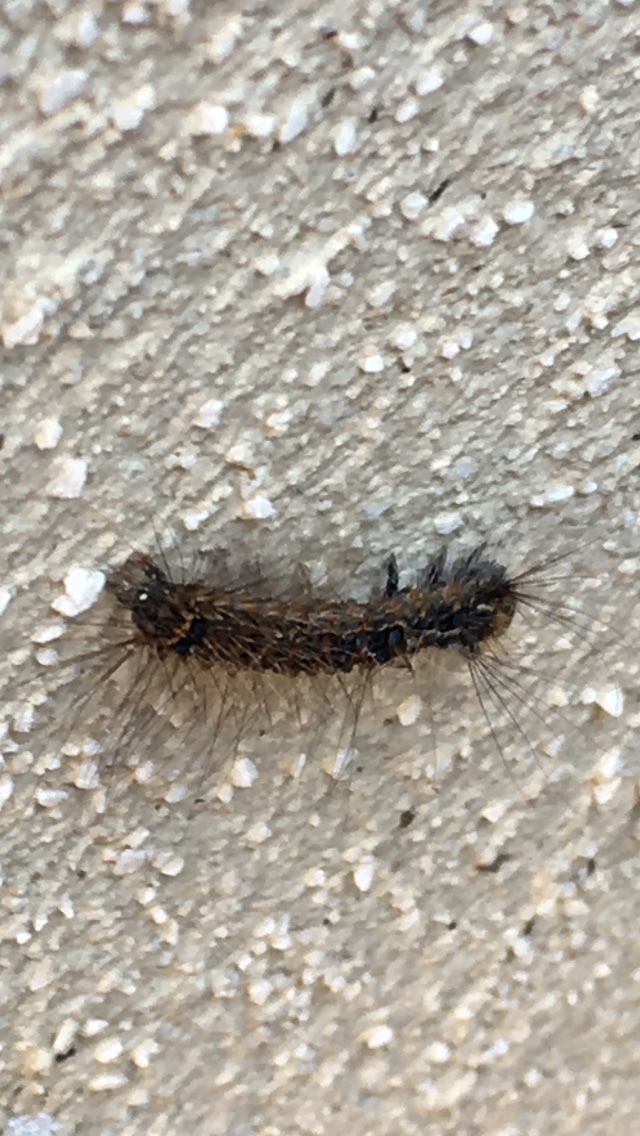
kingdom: Animalia
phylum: Arthropoda
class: Insecta
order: Lepidoptera
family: Erebidae
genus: Lymantria
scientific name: Lymantria dispar
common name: Gypsy moth
